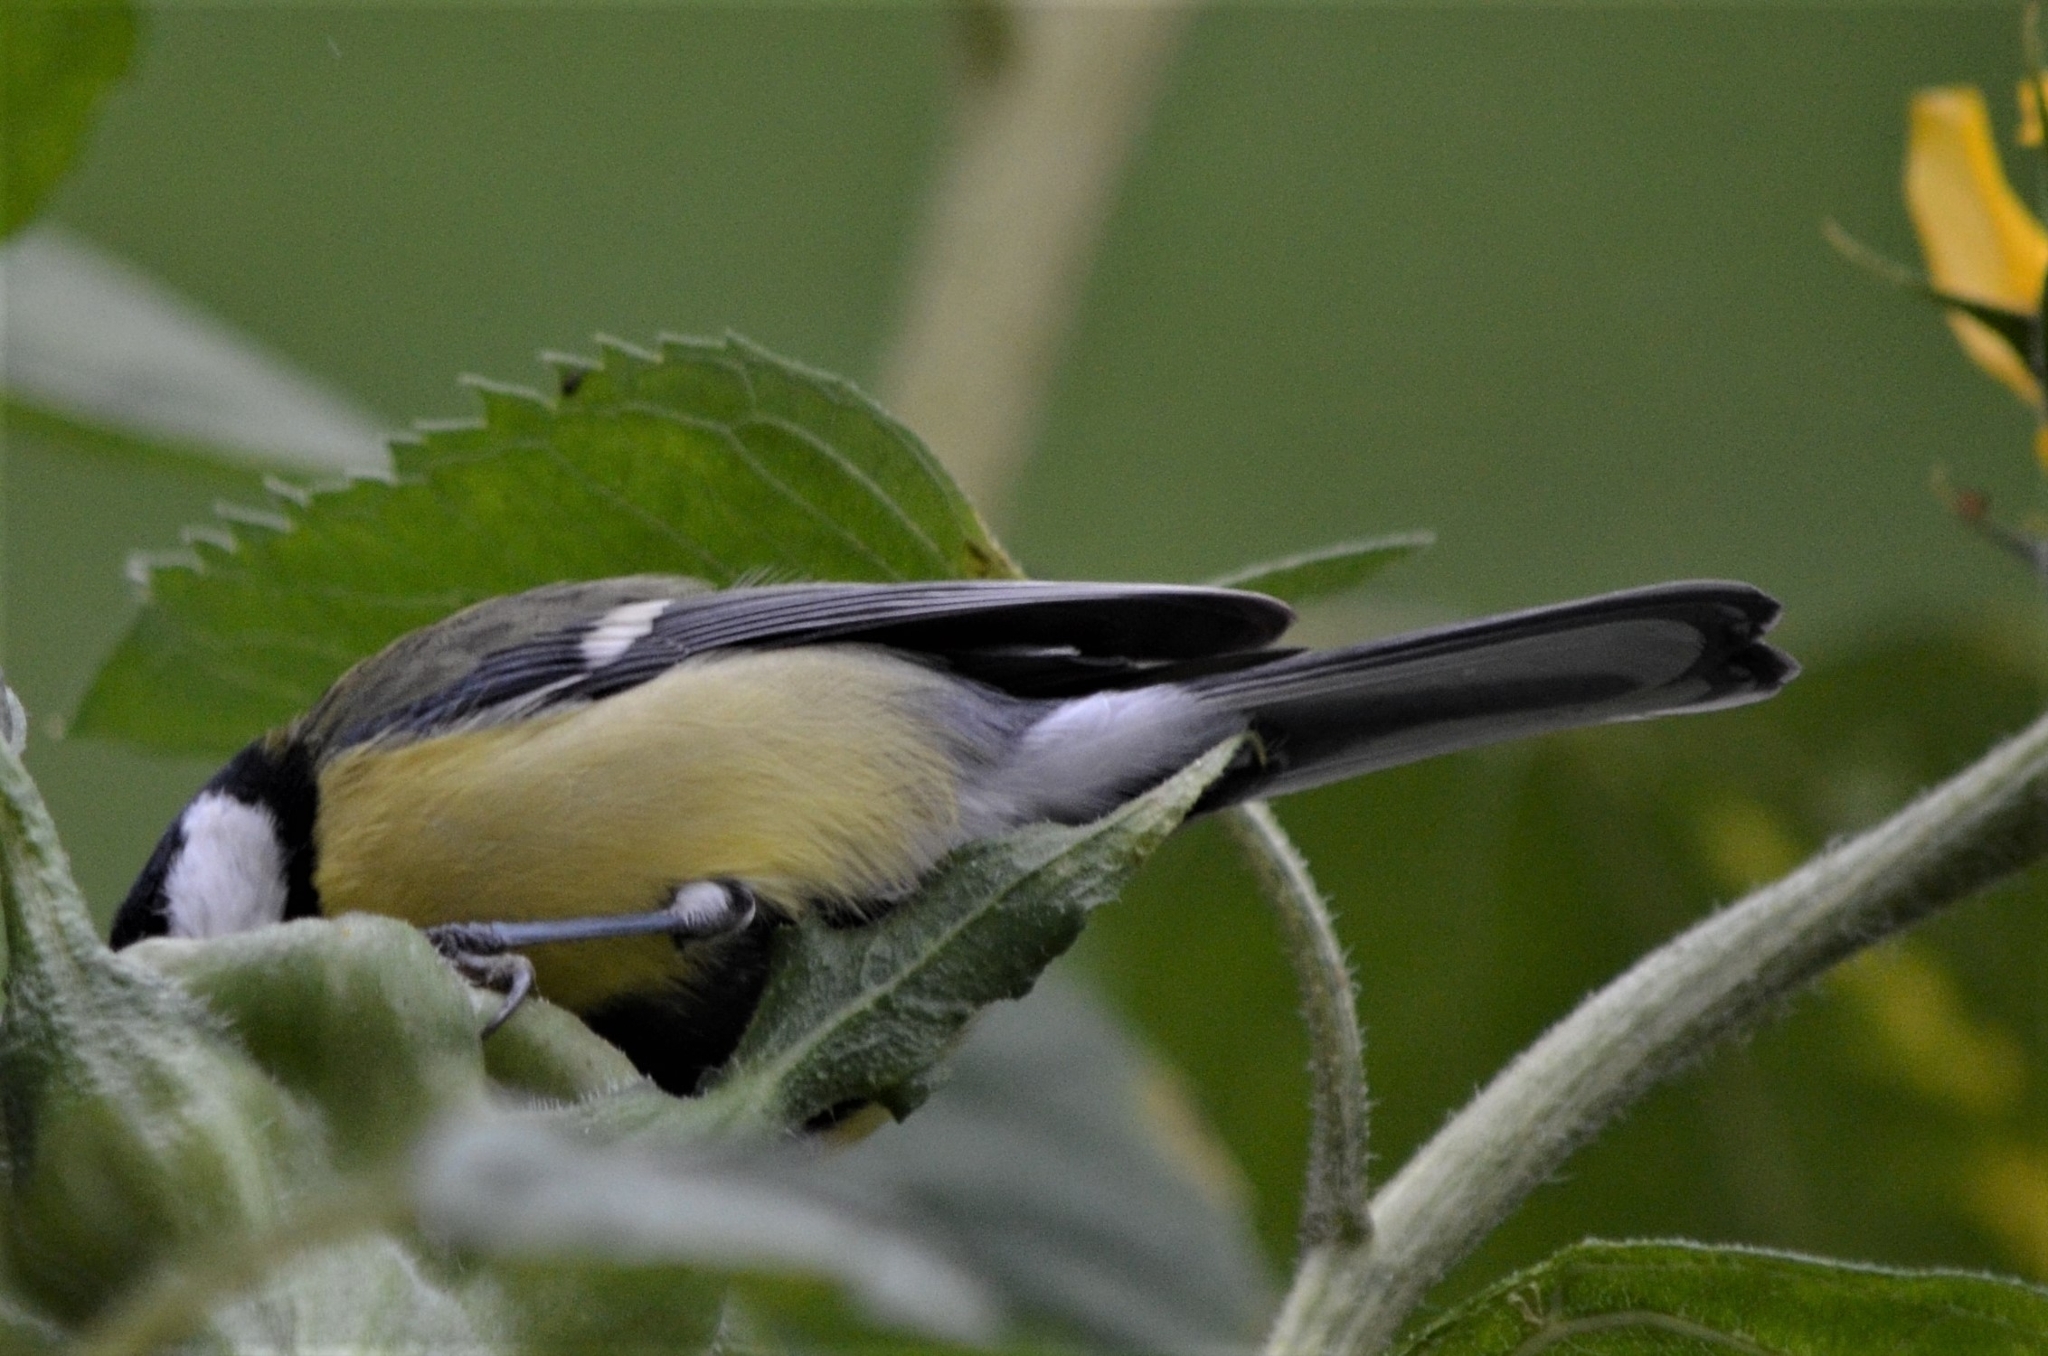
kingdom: Animalia
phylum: Chordata
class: Aves
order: Passeriformes
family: Paridae
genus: Parus
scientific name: Parus major
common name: Great tit
